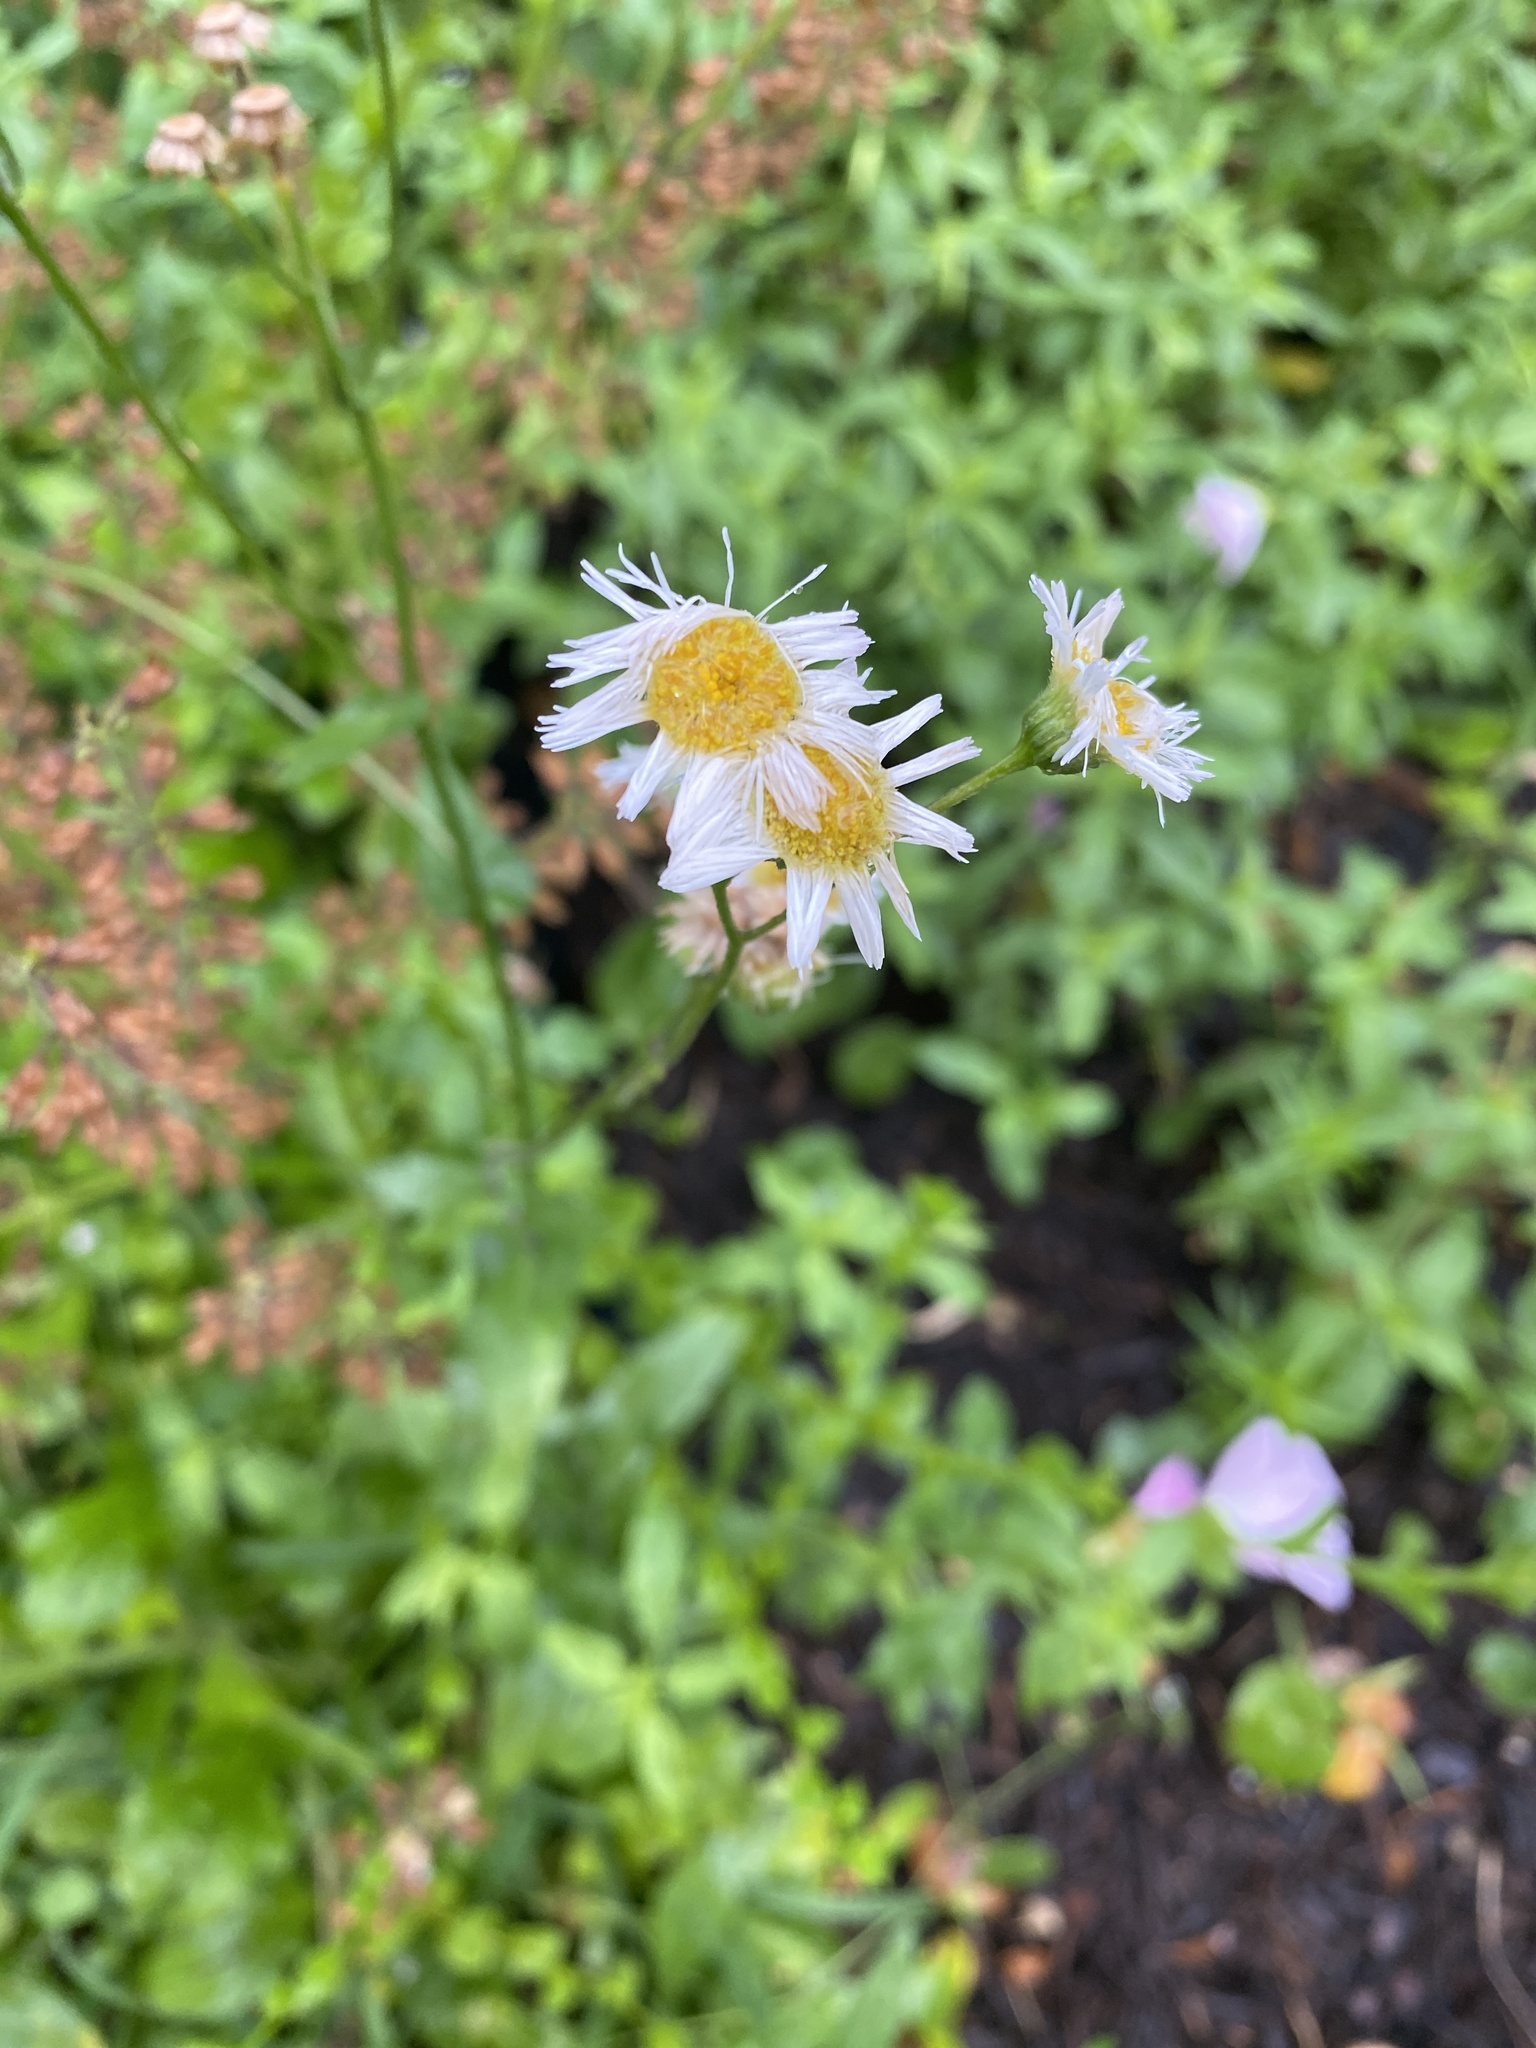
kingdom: Plantae
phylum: Tracheophyta
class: Magnoliopsida
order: Asterales
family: Asteraceae
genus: Erigeron
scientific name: Erigeron philadelphicus
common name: Robin's-plantain
